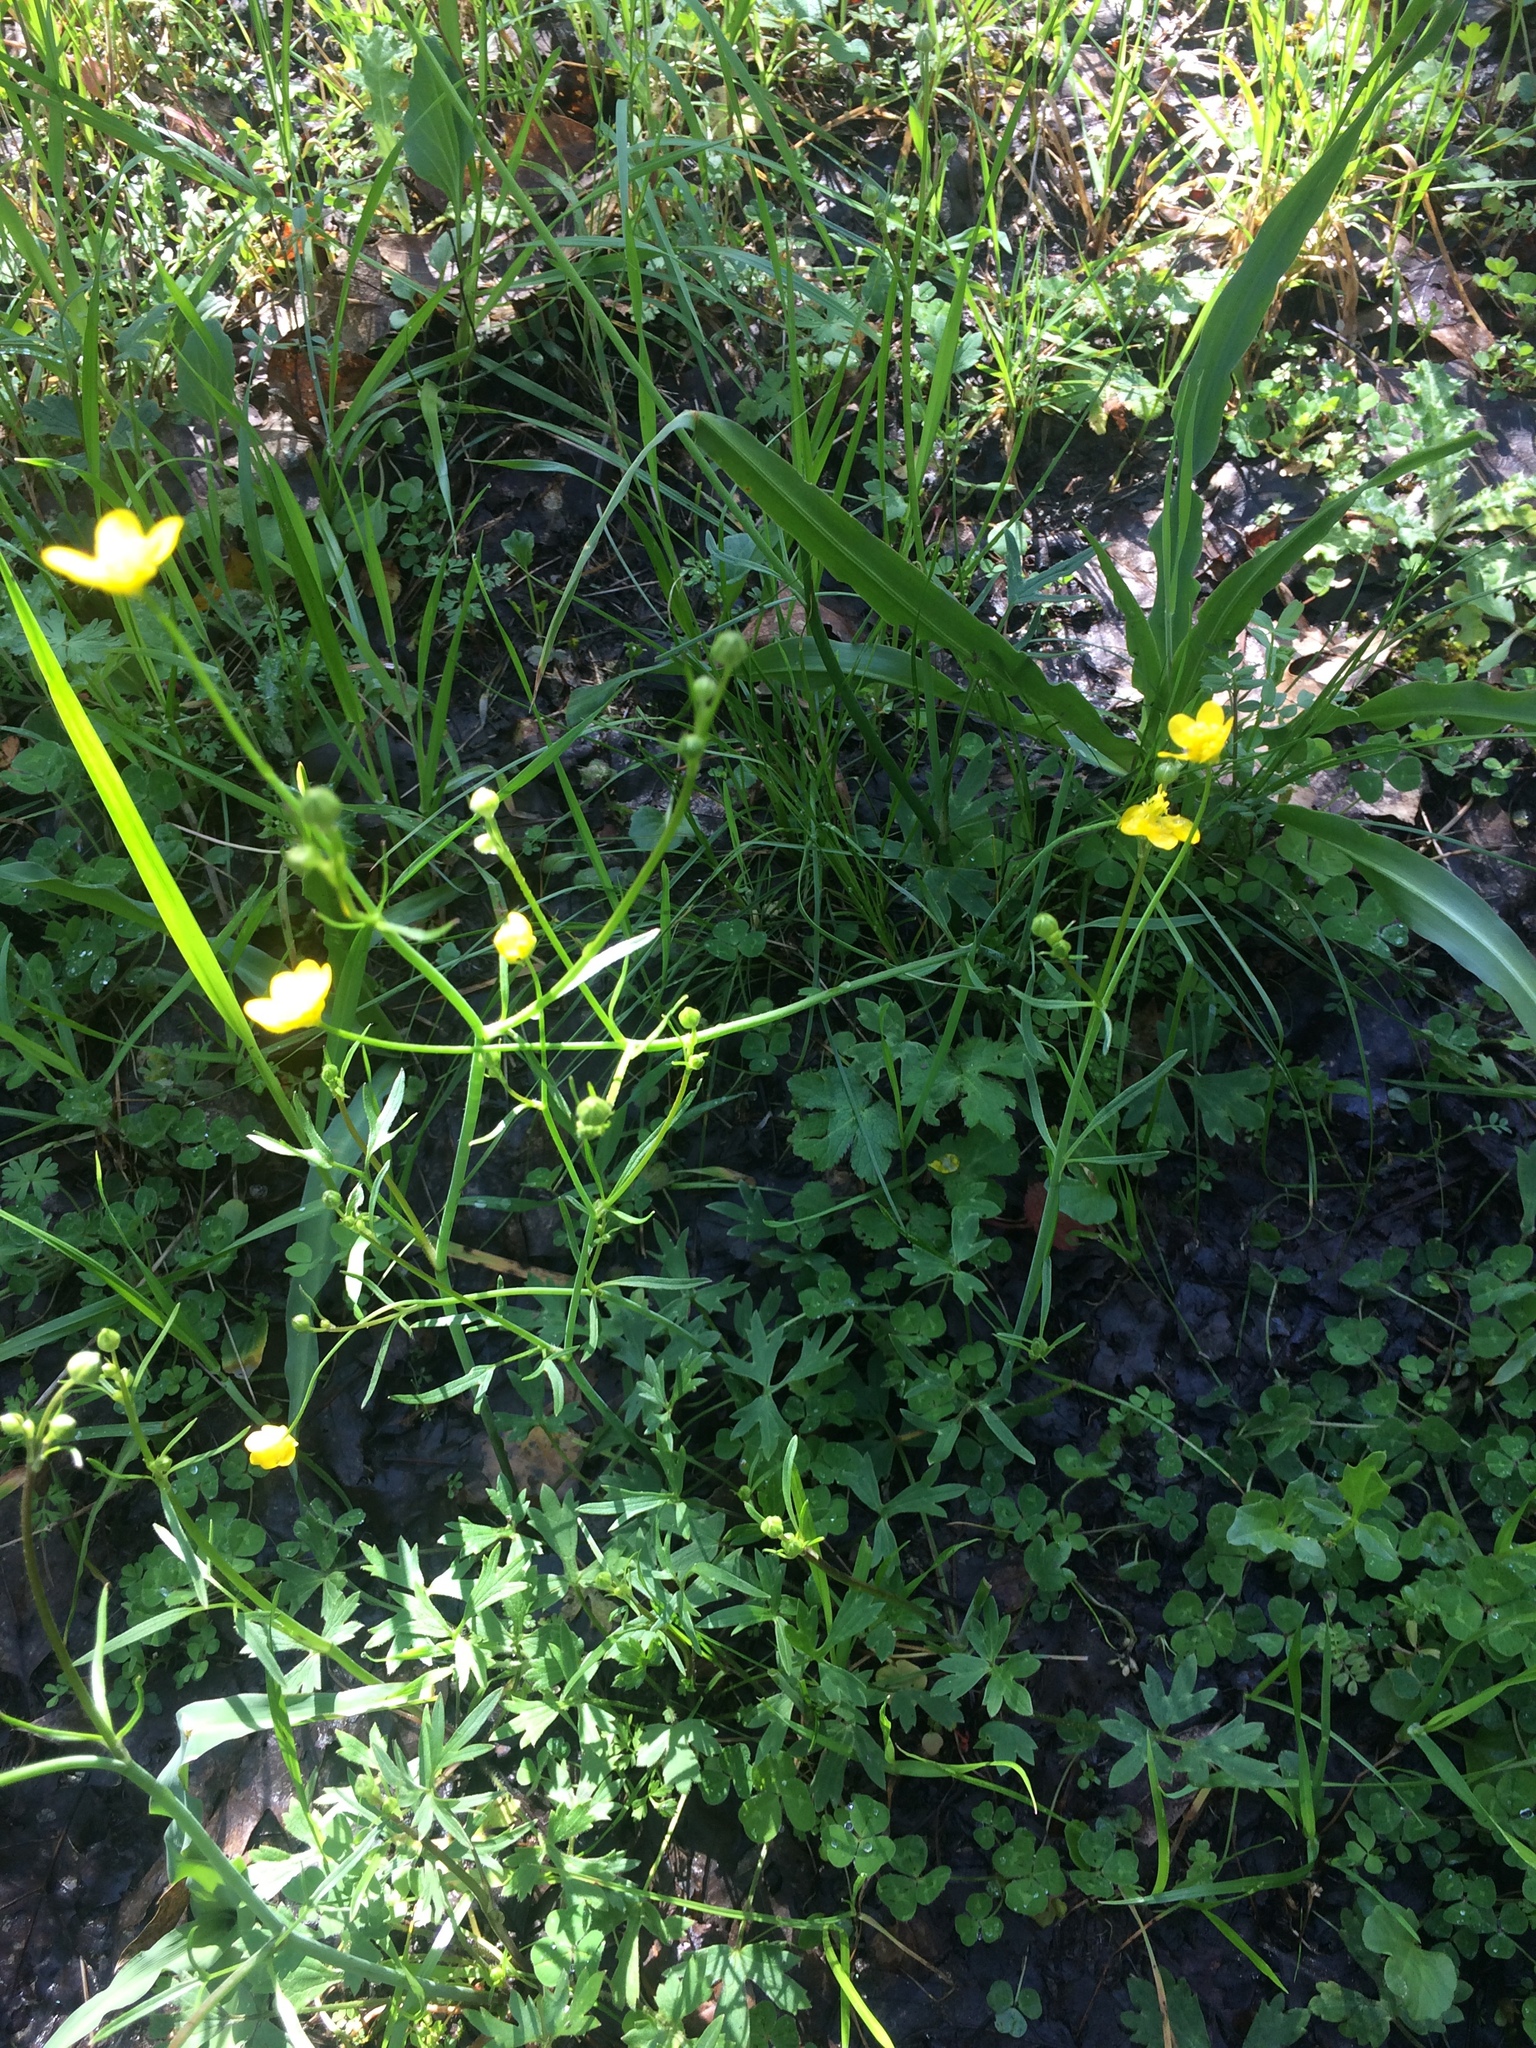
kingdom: Plantae
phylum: Tracheophyta
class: Magnoliopsida
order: Ranunculales
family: Ranunculaceae
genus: Ranunculus
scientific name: Ranunculus californicus
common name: California buttercup
